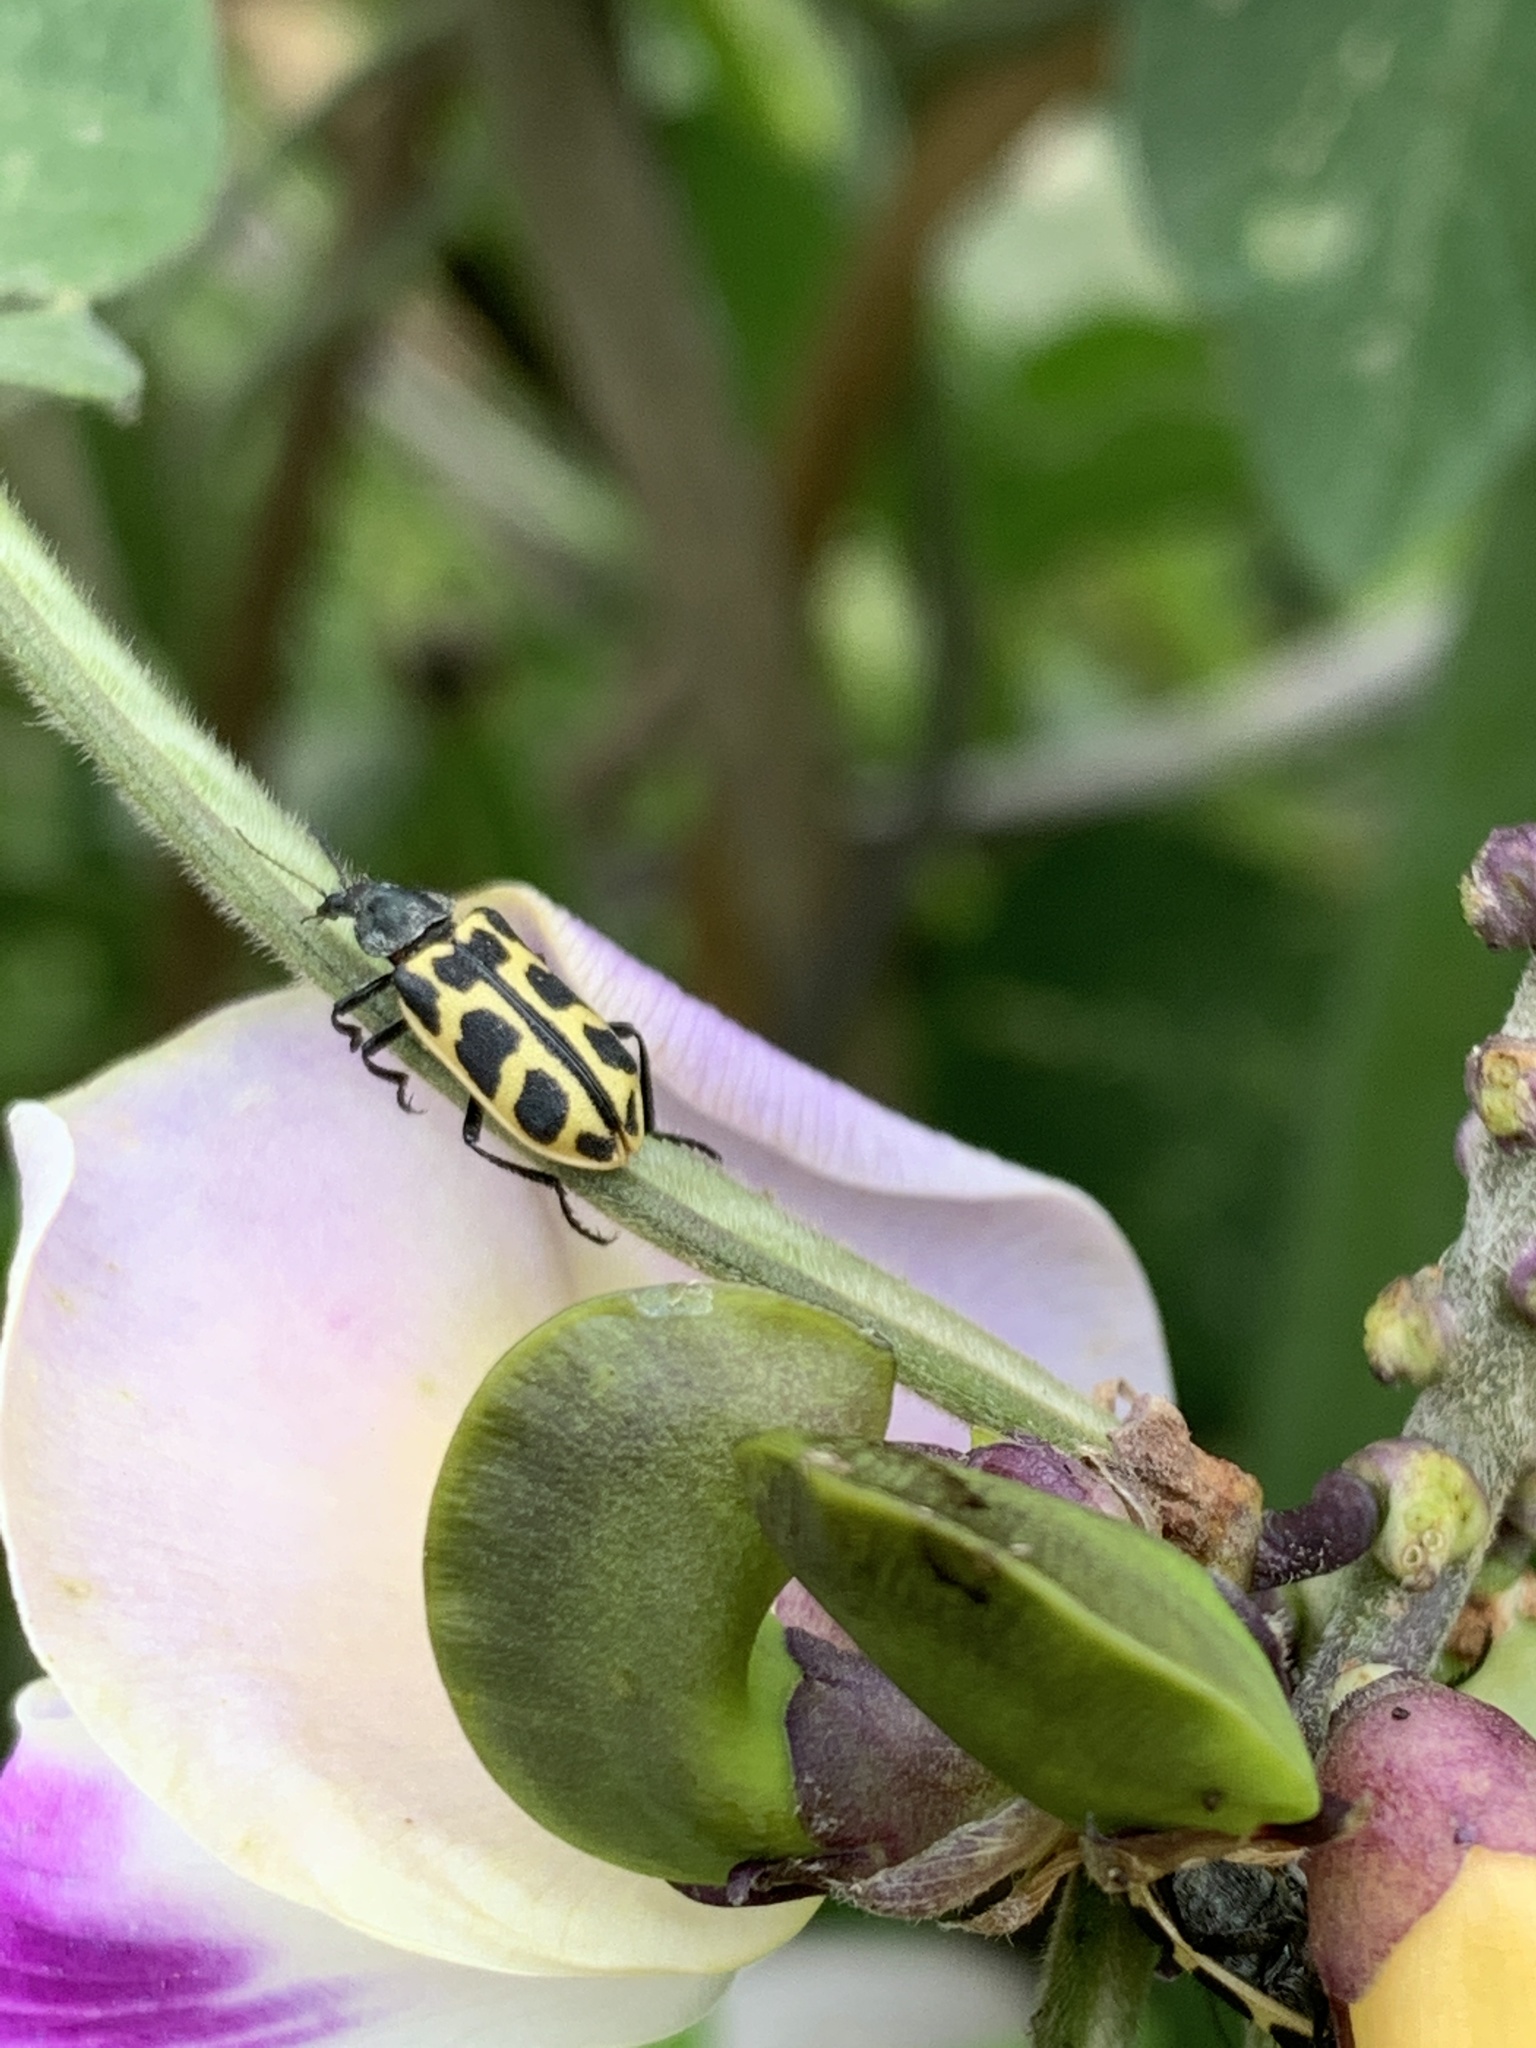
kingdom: Animalia
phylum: Arthropoda
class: Insecta
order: Coleoptera
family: Melyridae
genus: Astylus
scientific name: Astylus atromaculatus
